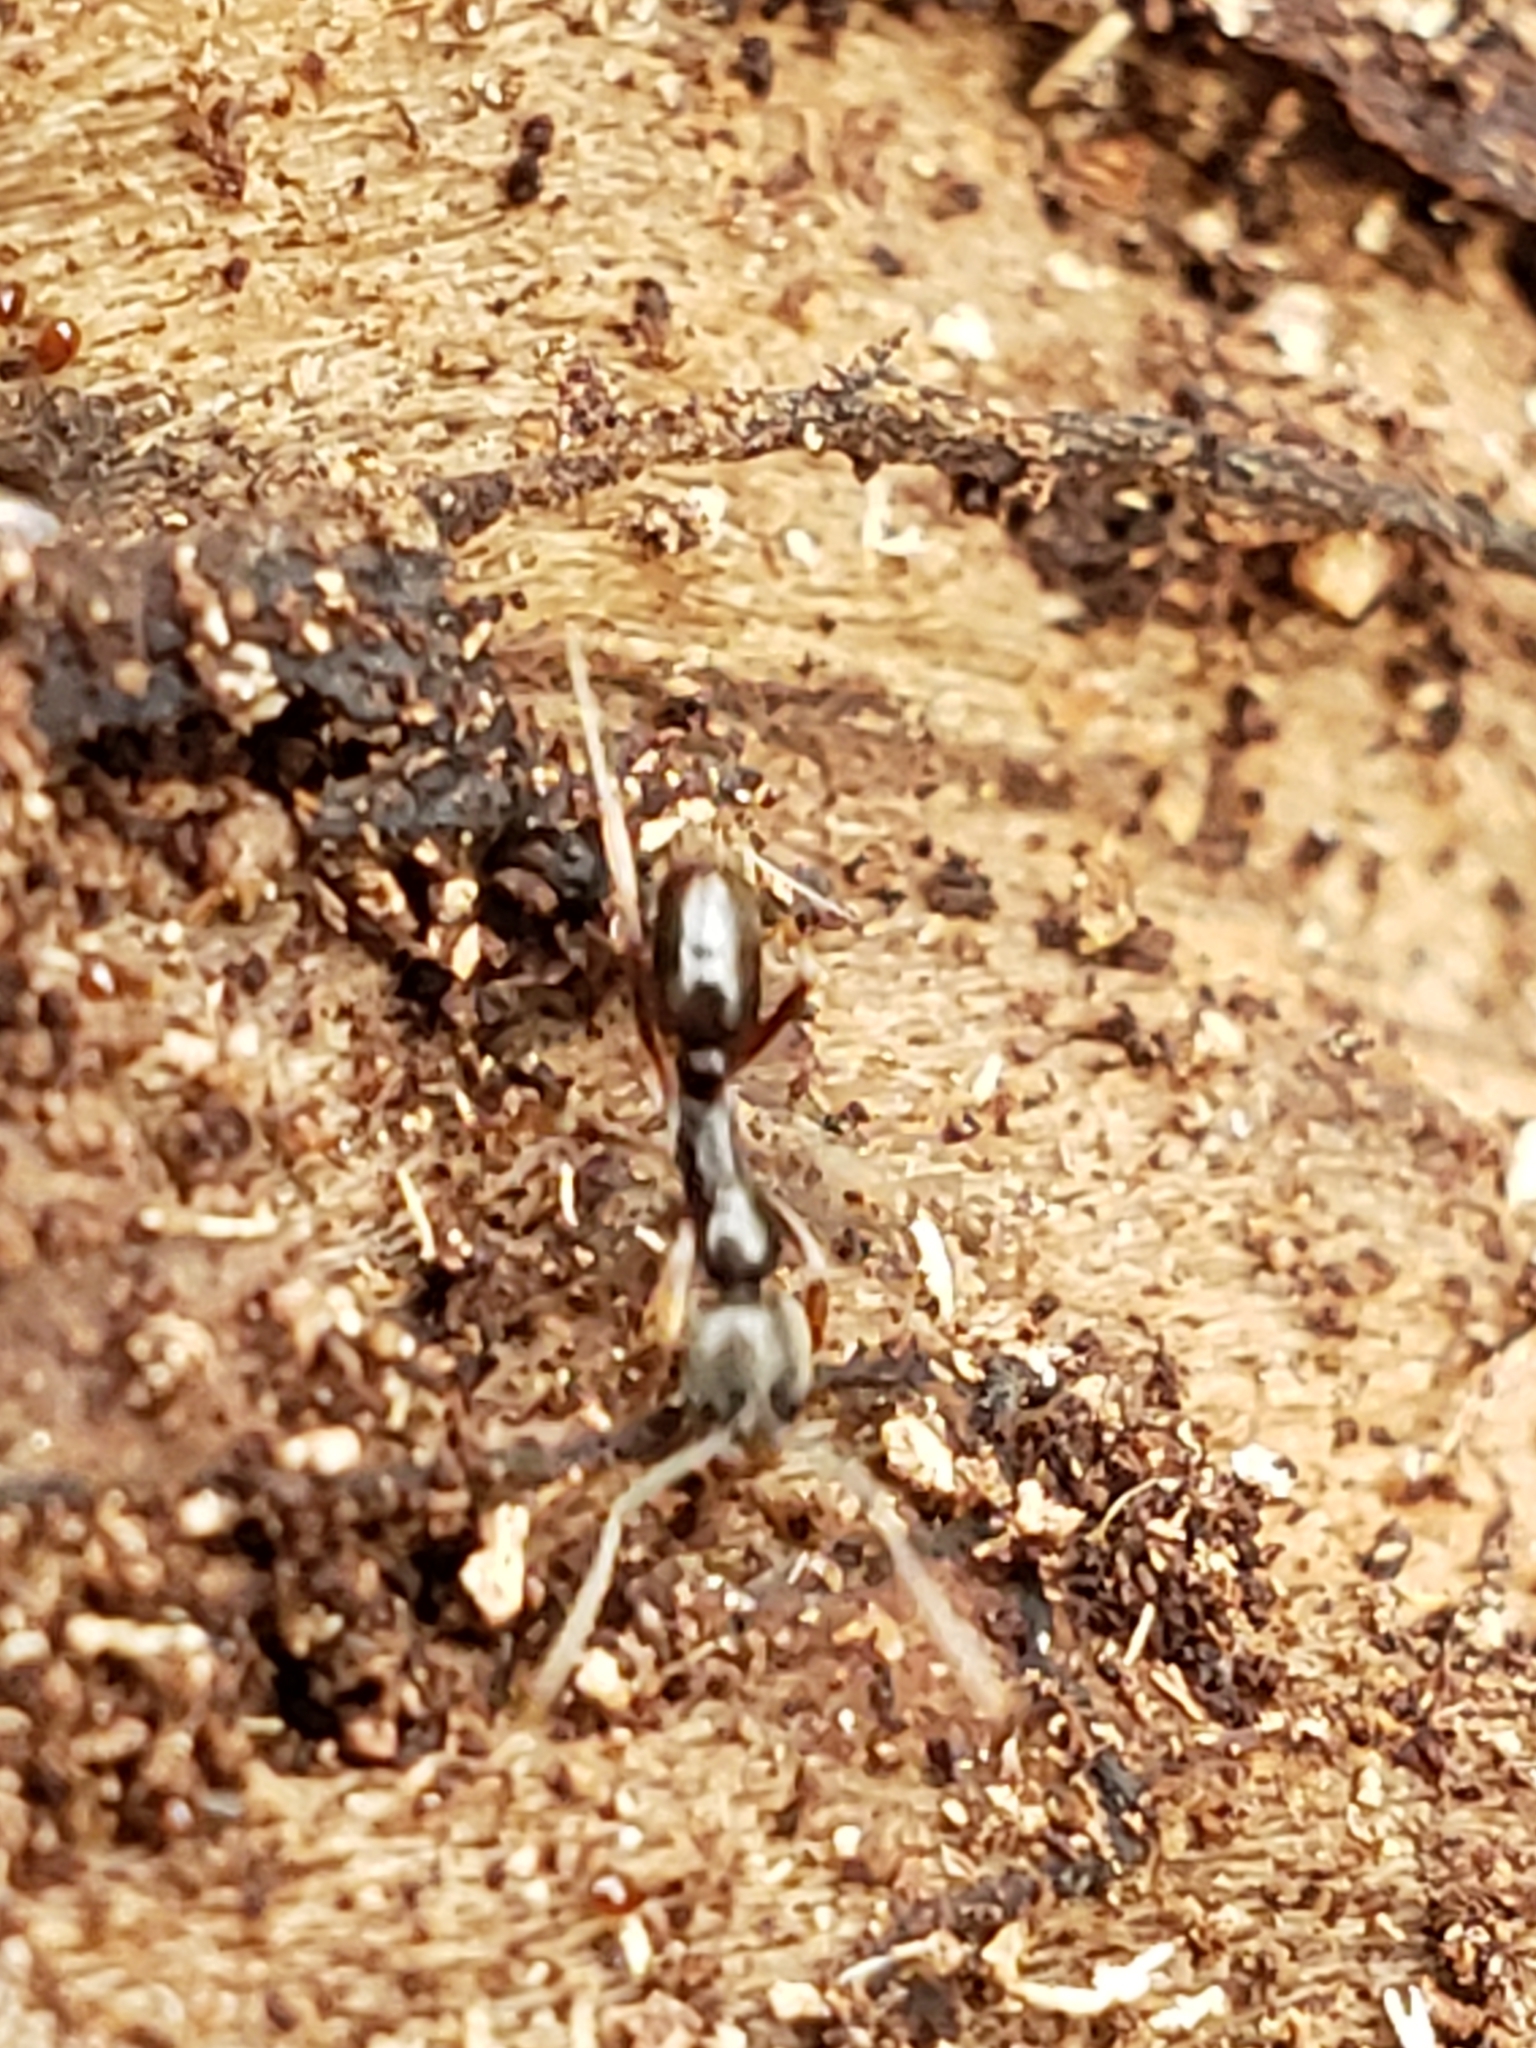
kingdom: Animalia
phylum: Arthropoda
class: Insecta
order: Hymenoptera
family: Formicidae
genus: Pachycondyla
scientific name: Pachycondyla chinensis
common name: Asian needle ant
